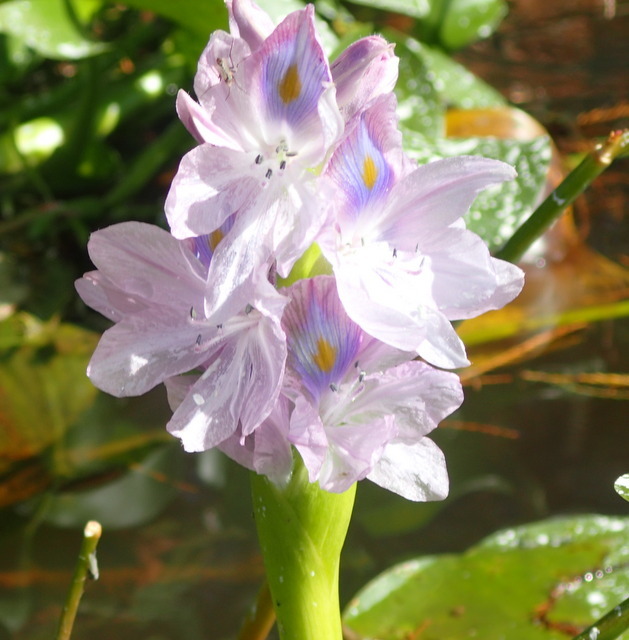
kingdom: Plantae
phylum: Tracheophyta
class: Liliopsida
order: Commelinales
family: Pontederiaceae
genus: Pontederia
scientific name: Pontederia crassipes
